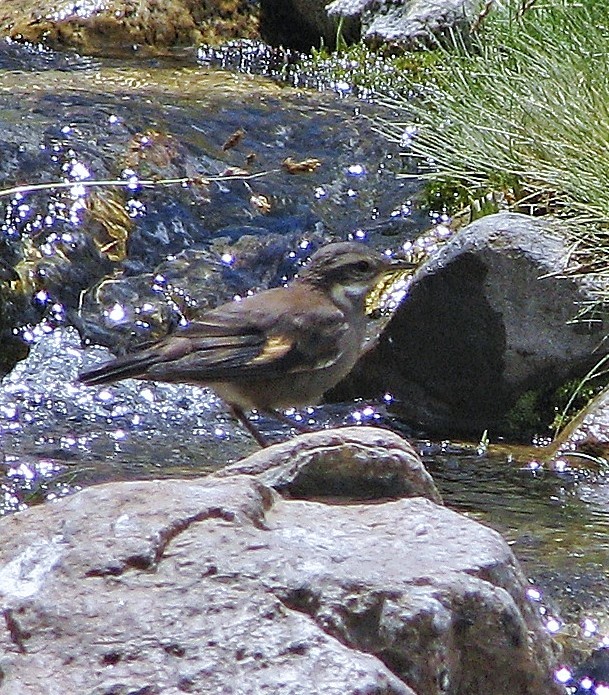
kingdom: Animalia
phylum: Chordata
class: Aves
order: Passeriformes
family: Furnariidae
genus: Cinclodes
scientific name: Cinclodes oustaleti
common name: Grey-flanked cinclodes
